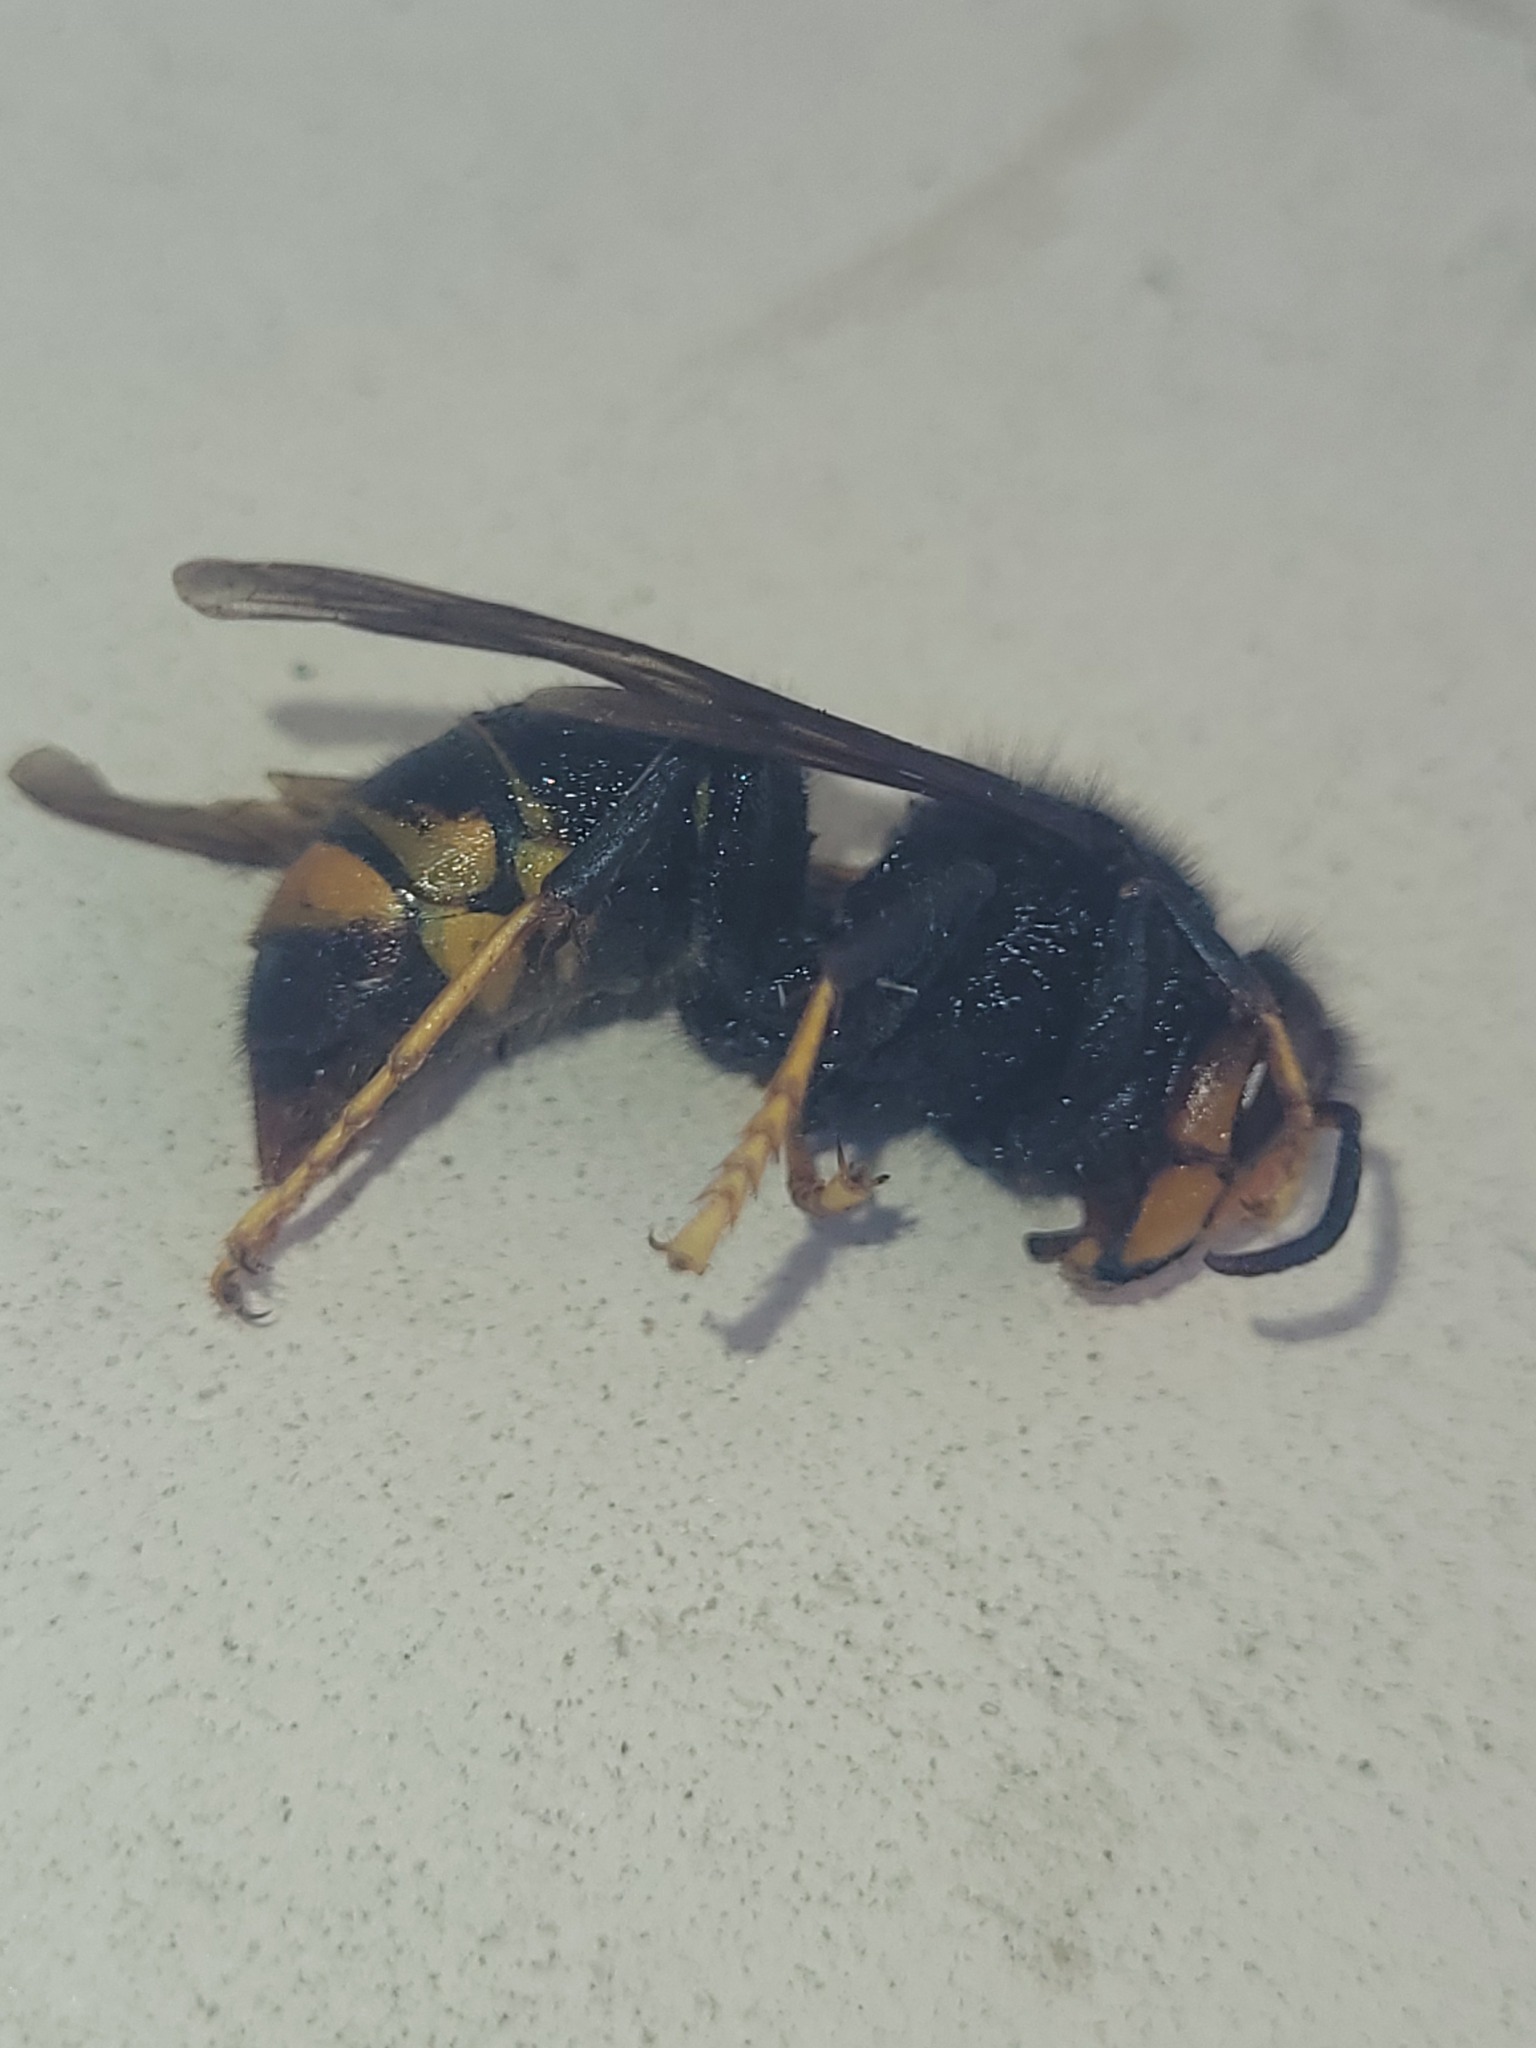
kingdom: Animalia
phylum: Arthropoda
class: Insecta
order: Hymenoptera
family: Vespidae
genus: Vespa
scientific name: Vespa velutina
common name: Asian hornet
